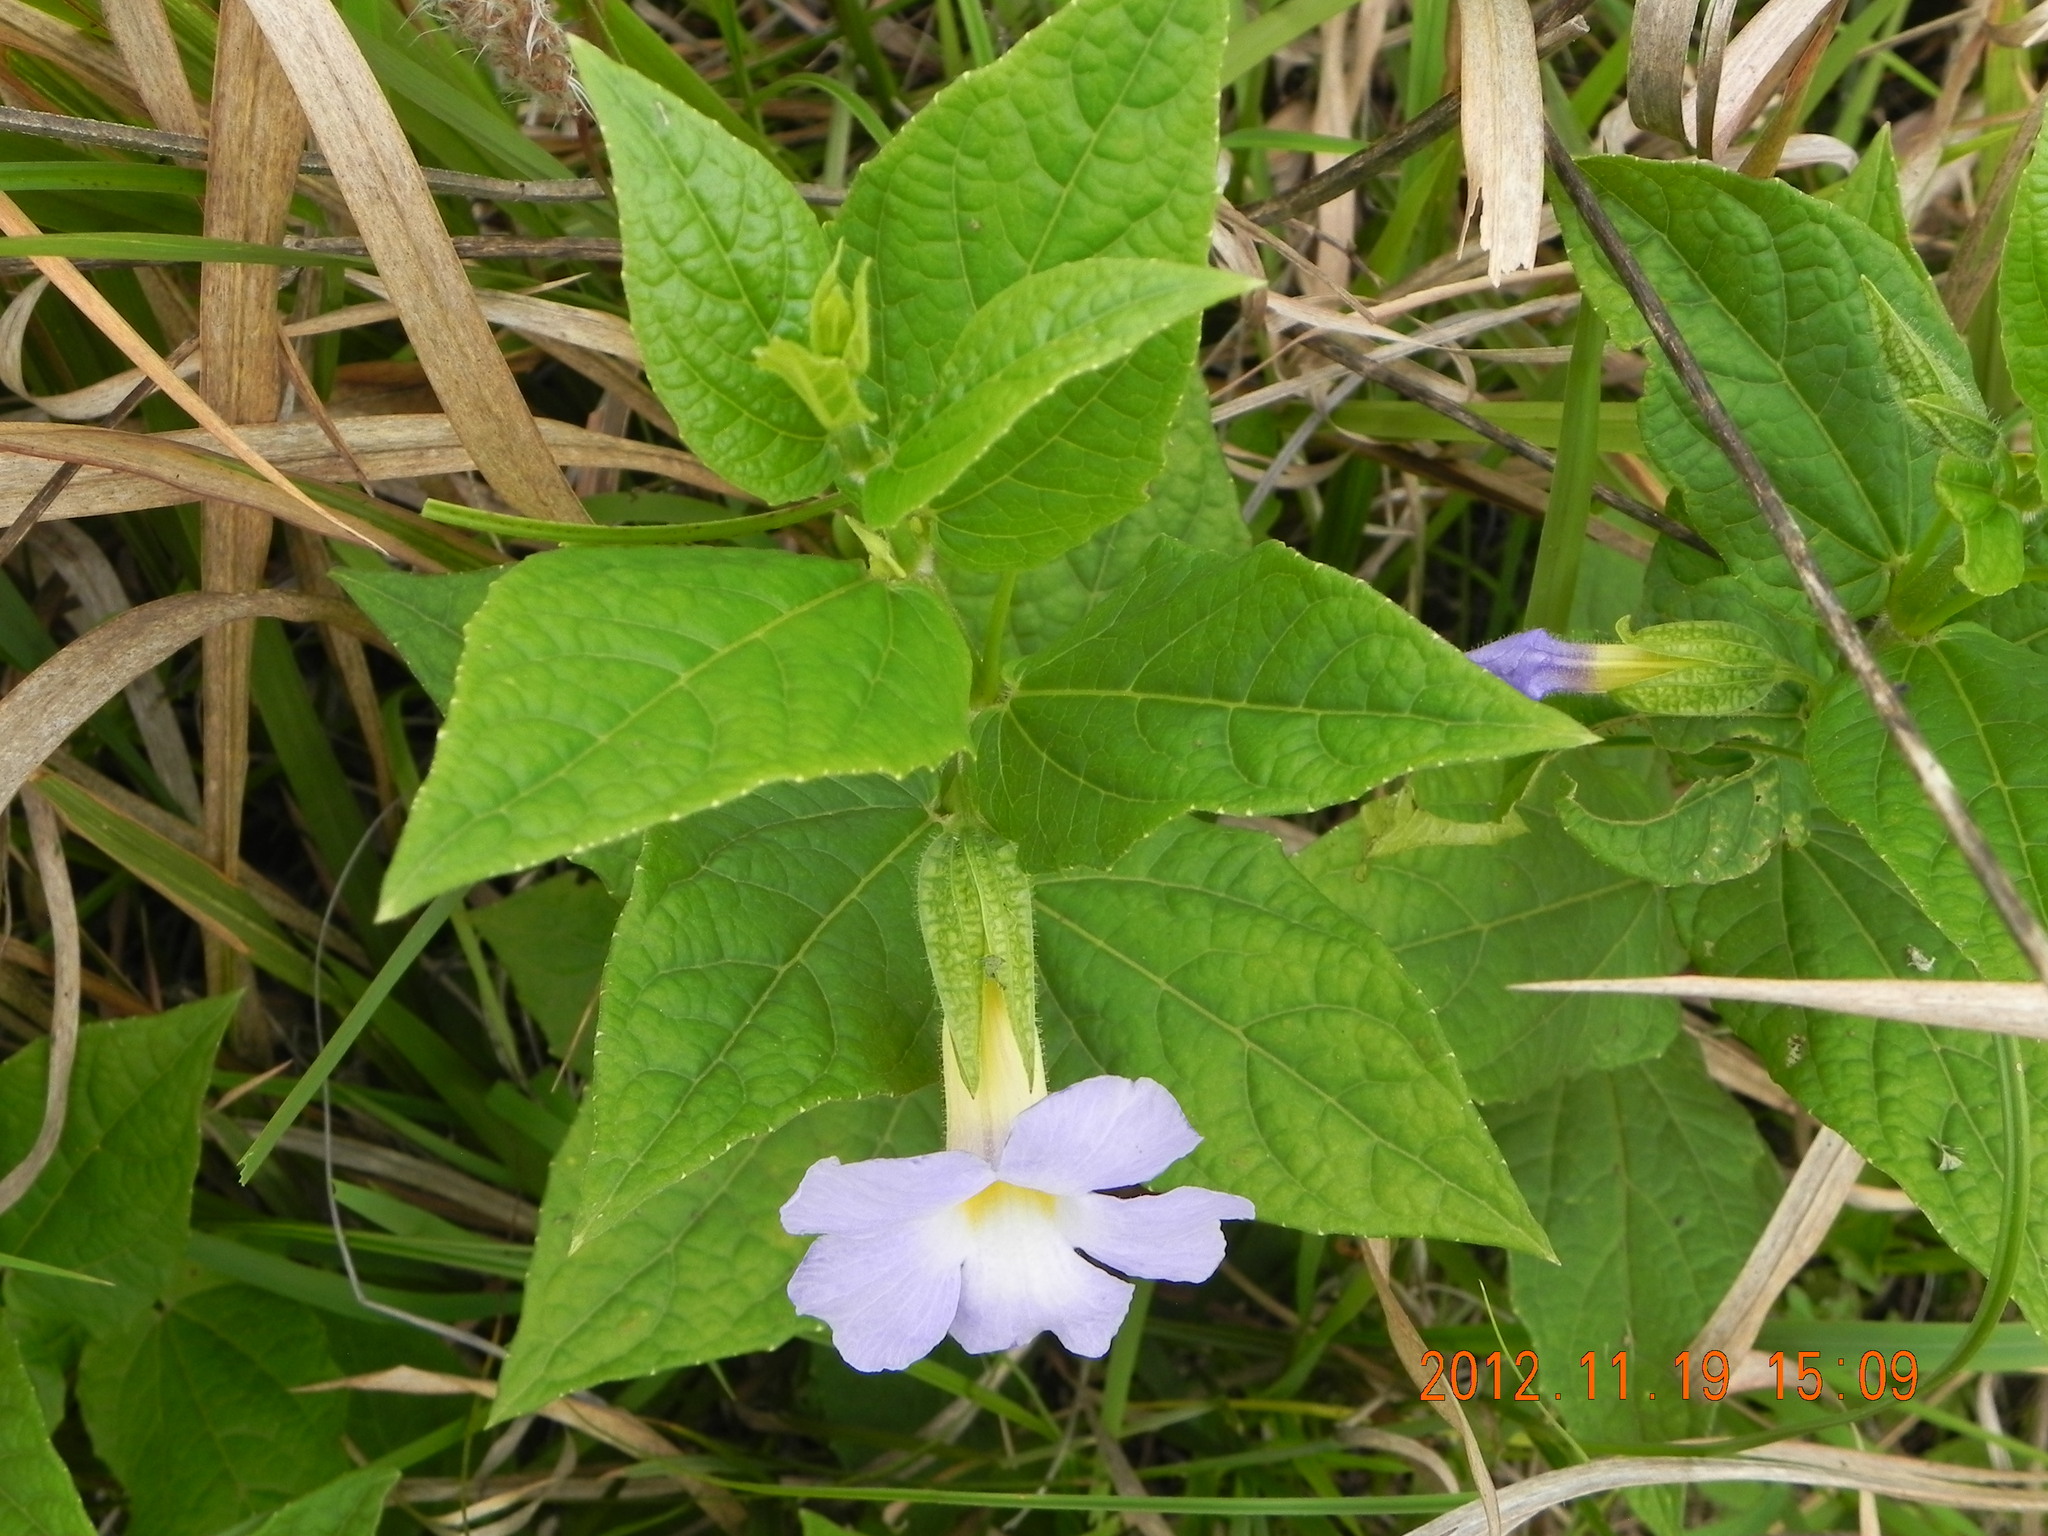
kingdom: Plantae
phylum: Tracheophyta
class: Magnoliopsida
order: Lamiales
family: Acanthaceae
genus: Thunbergia
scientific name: Thunbergia natalensis
